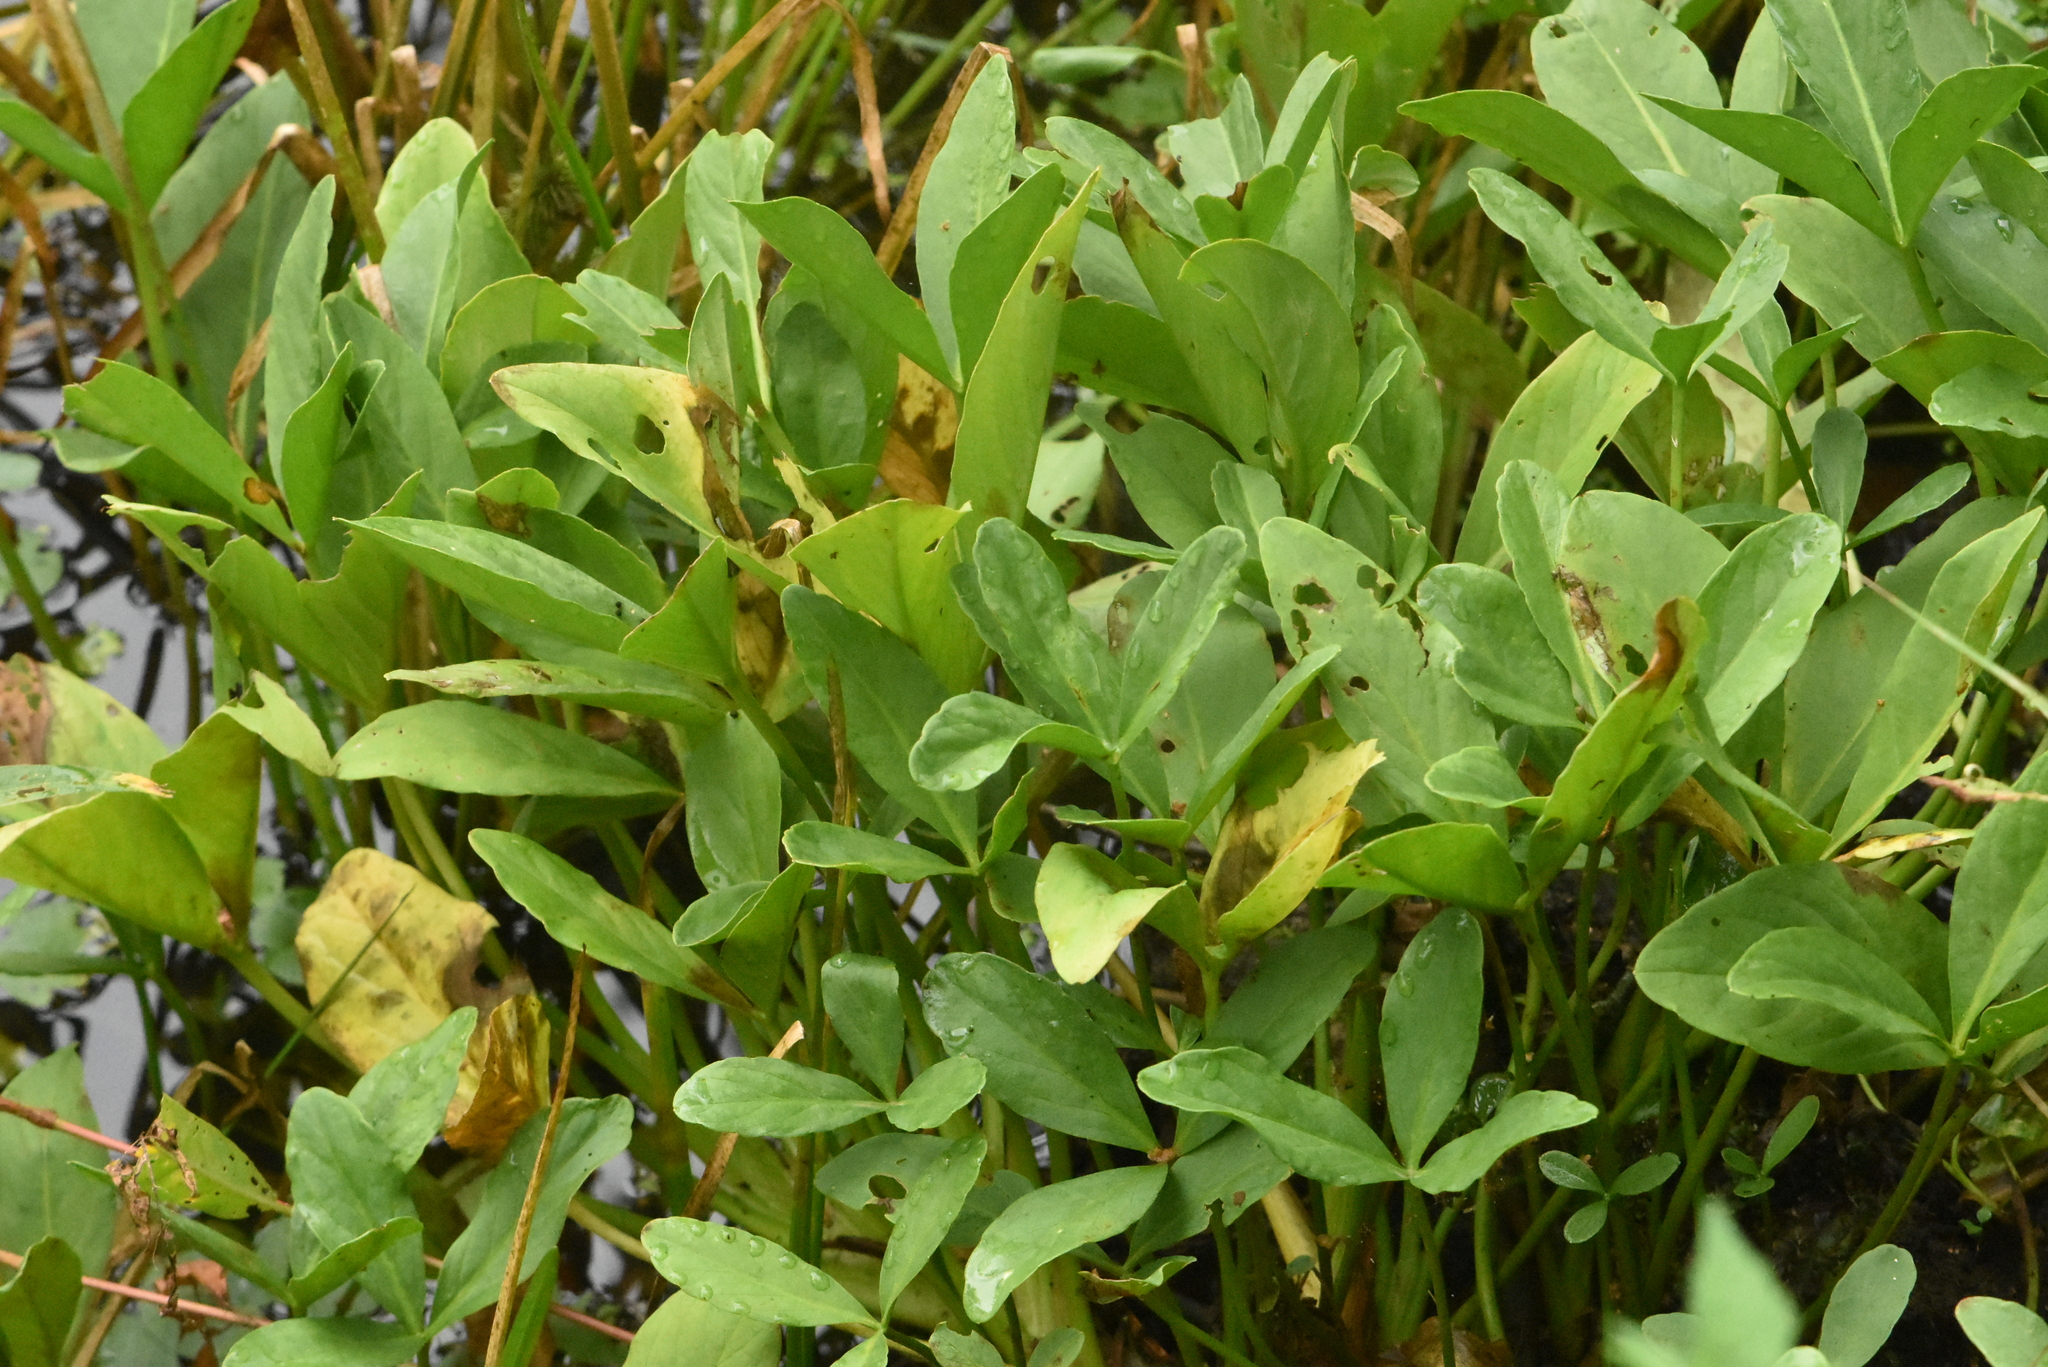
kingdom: Plantae
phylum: Tracheophyta
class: Magnoliopsida
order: Asterales
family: Menyanthaceae
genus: Menyanthes
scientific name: Menyanthes trifoliata
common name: Bogbean
